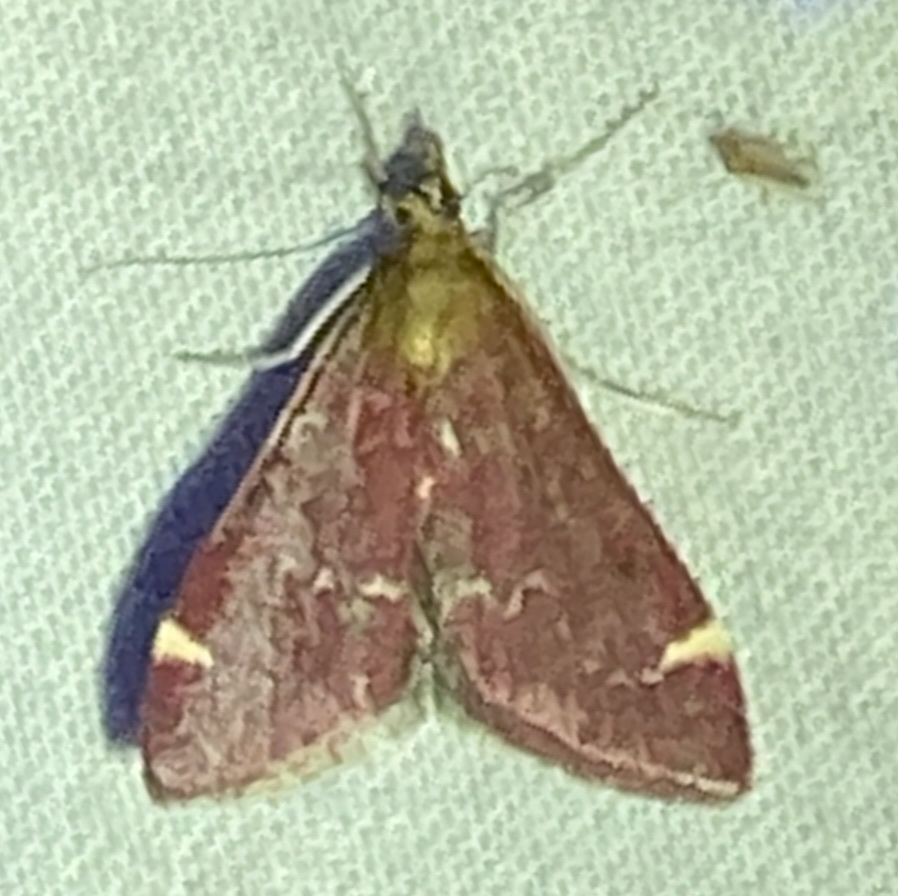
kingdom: Animalia
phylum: Arthropoda
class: Insecta
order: Lepidoptera
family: Crambidae
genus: Pyrausta
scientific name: Pyrausta grotei
